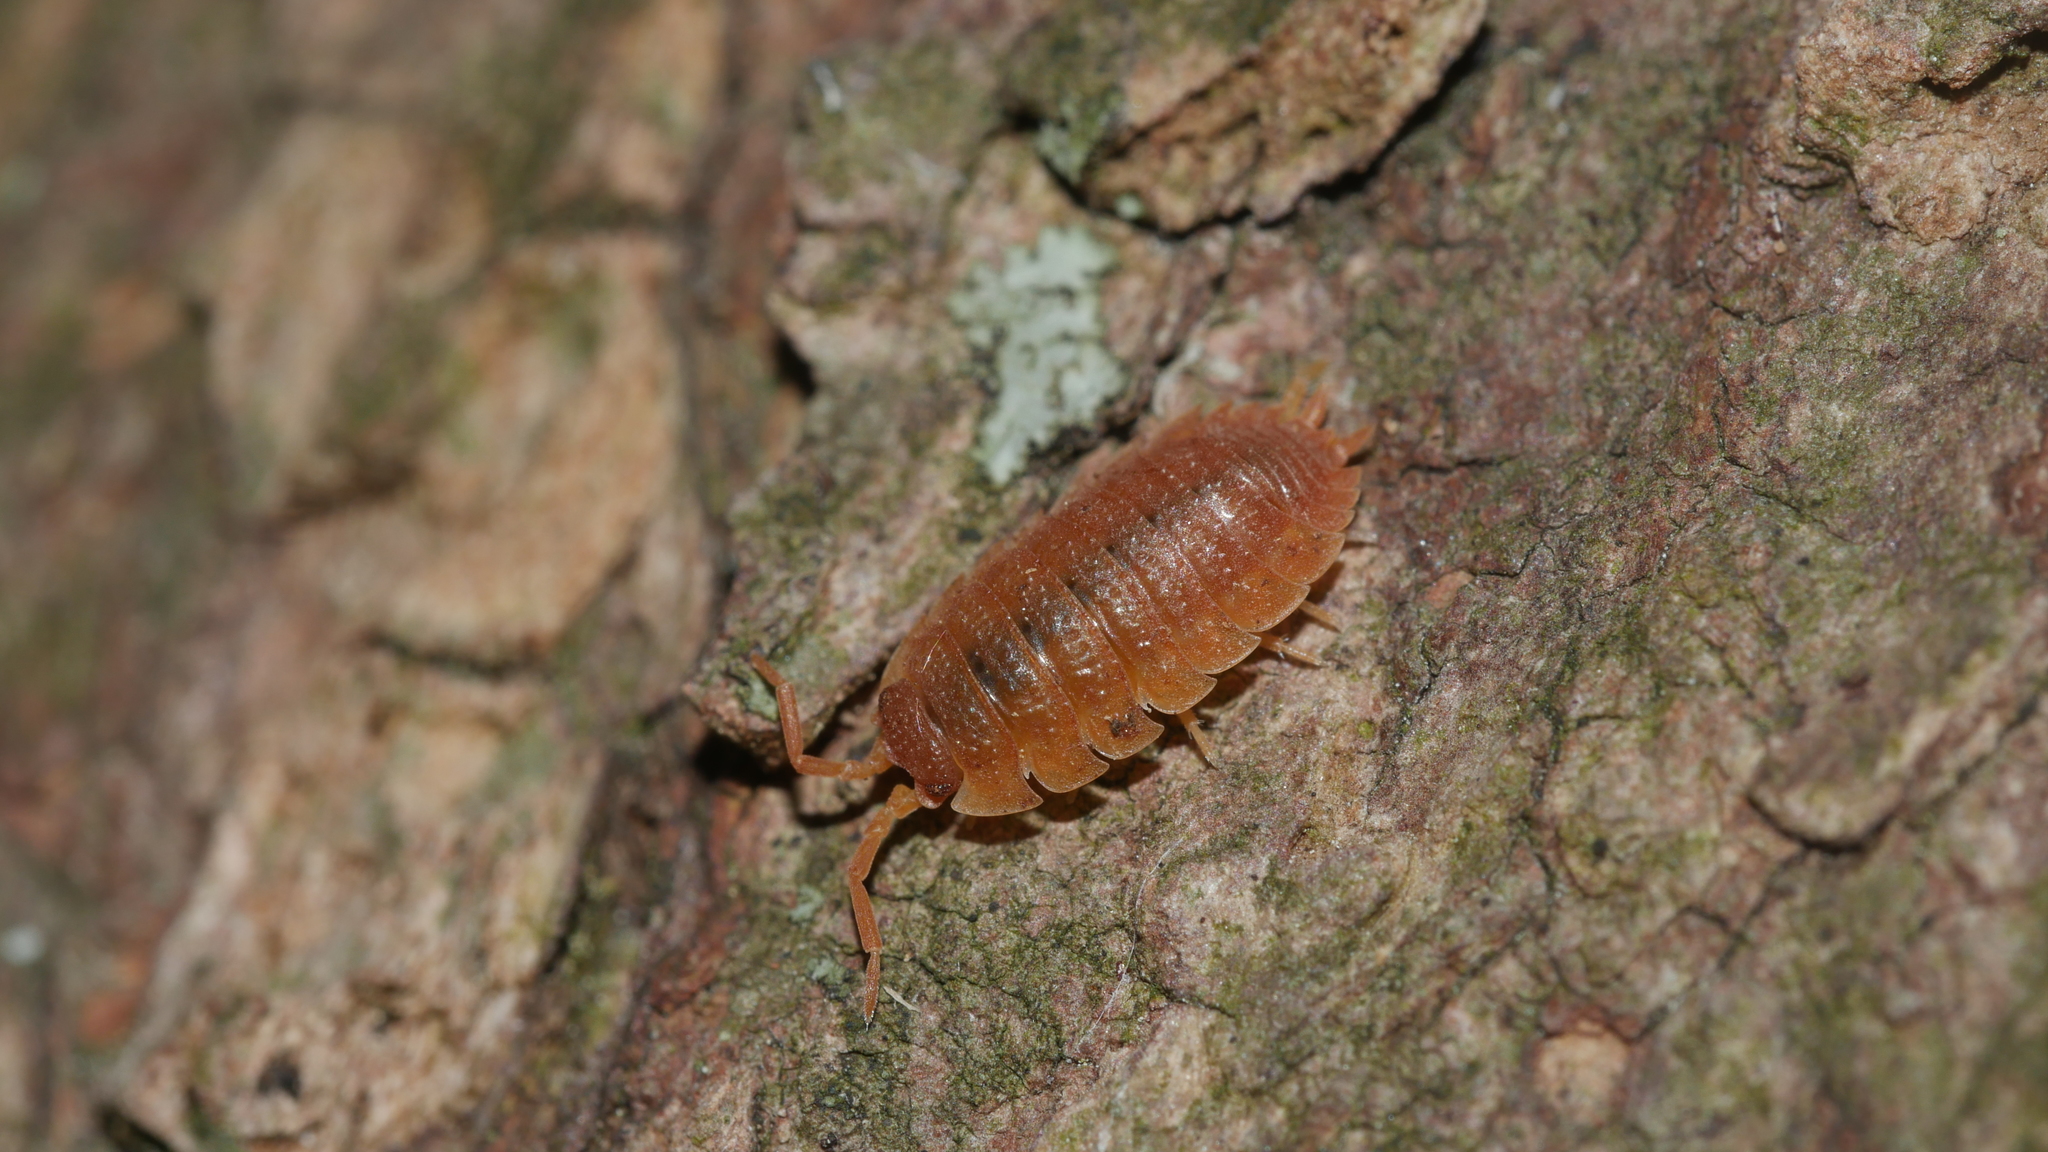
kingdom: Animalia
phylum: Arthropoda
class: Malacostraca
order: Isopoda
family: Porcellionidae
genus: Porcellio
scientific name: Porcellio scaber
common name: Common rough woodlouse
